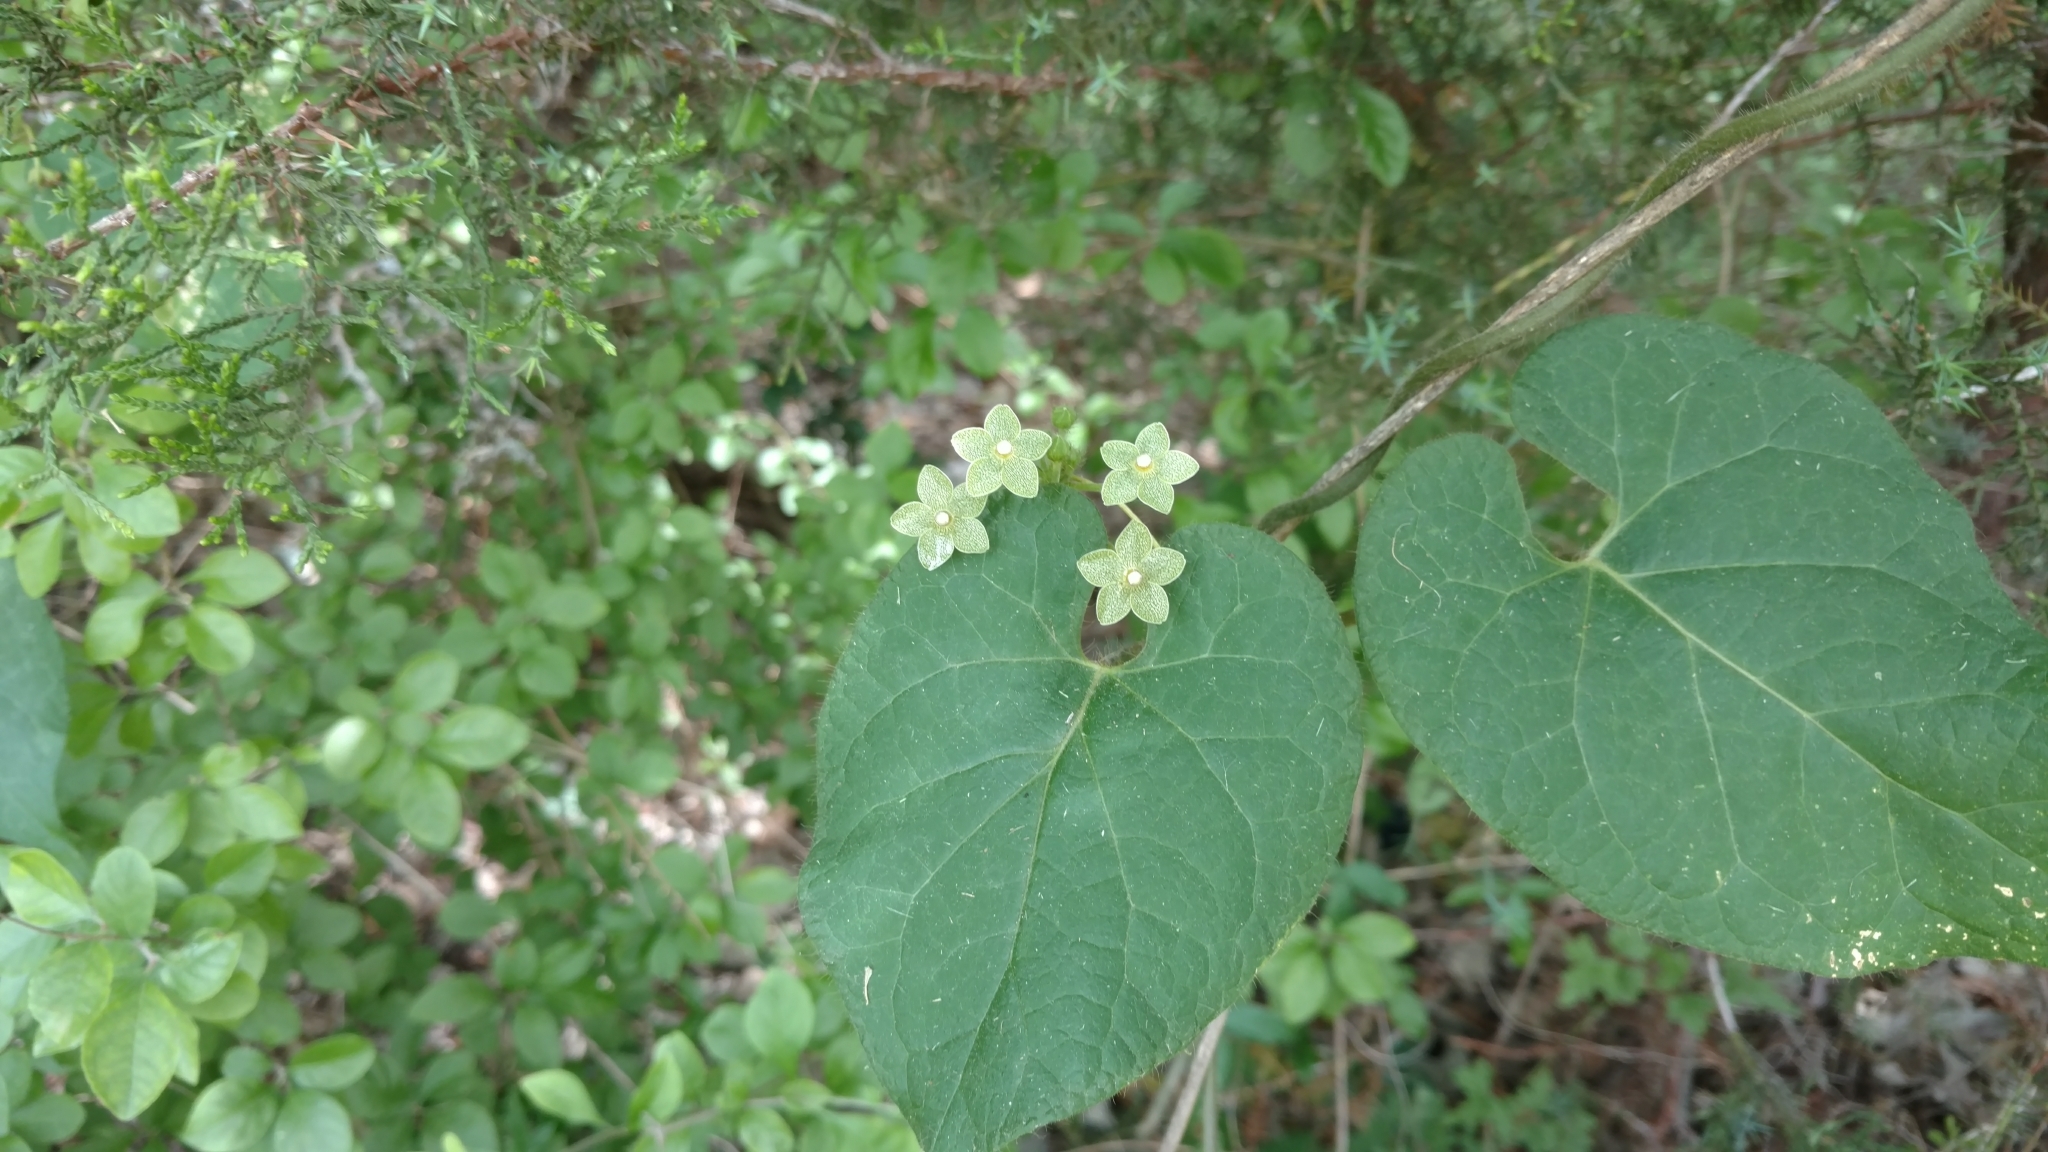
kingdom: Plantae
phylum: Tracheophyta
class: Magnoliopsida
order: Gentianales
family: Apocynaceae
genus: Dictyanthus
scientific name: Dictyanthus reticulatus
